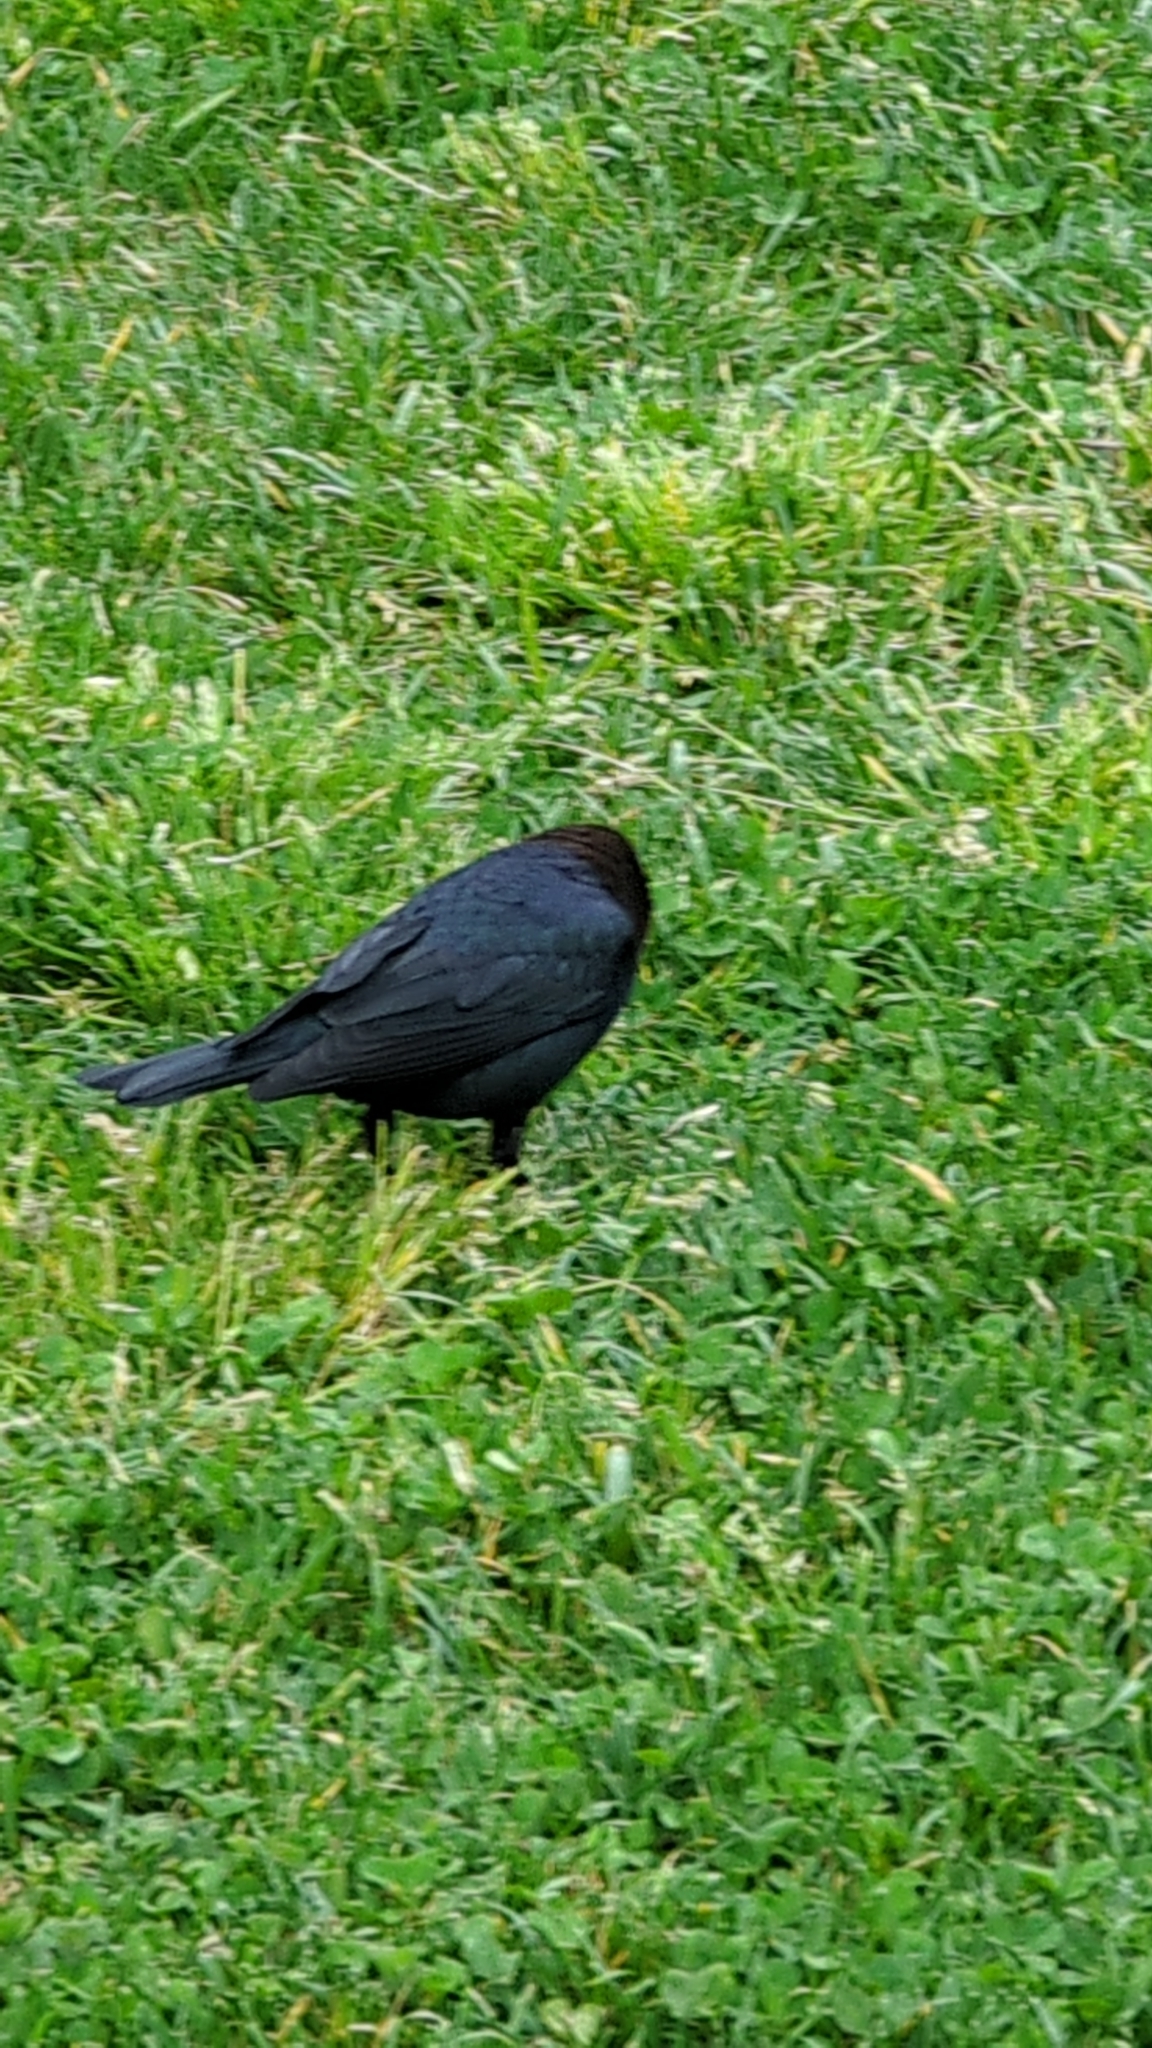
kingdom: Animalia
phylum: Chordata
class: Aves
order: Passeriformes
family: Icteridae
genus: Molothrus
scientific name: Molothrus ater
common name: Brown-headed cowbird
